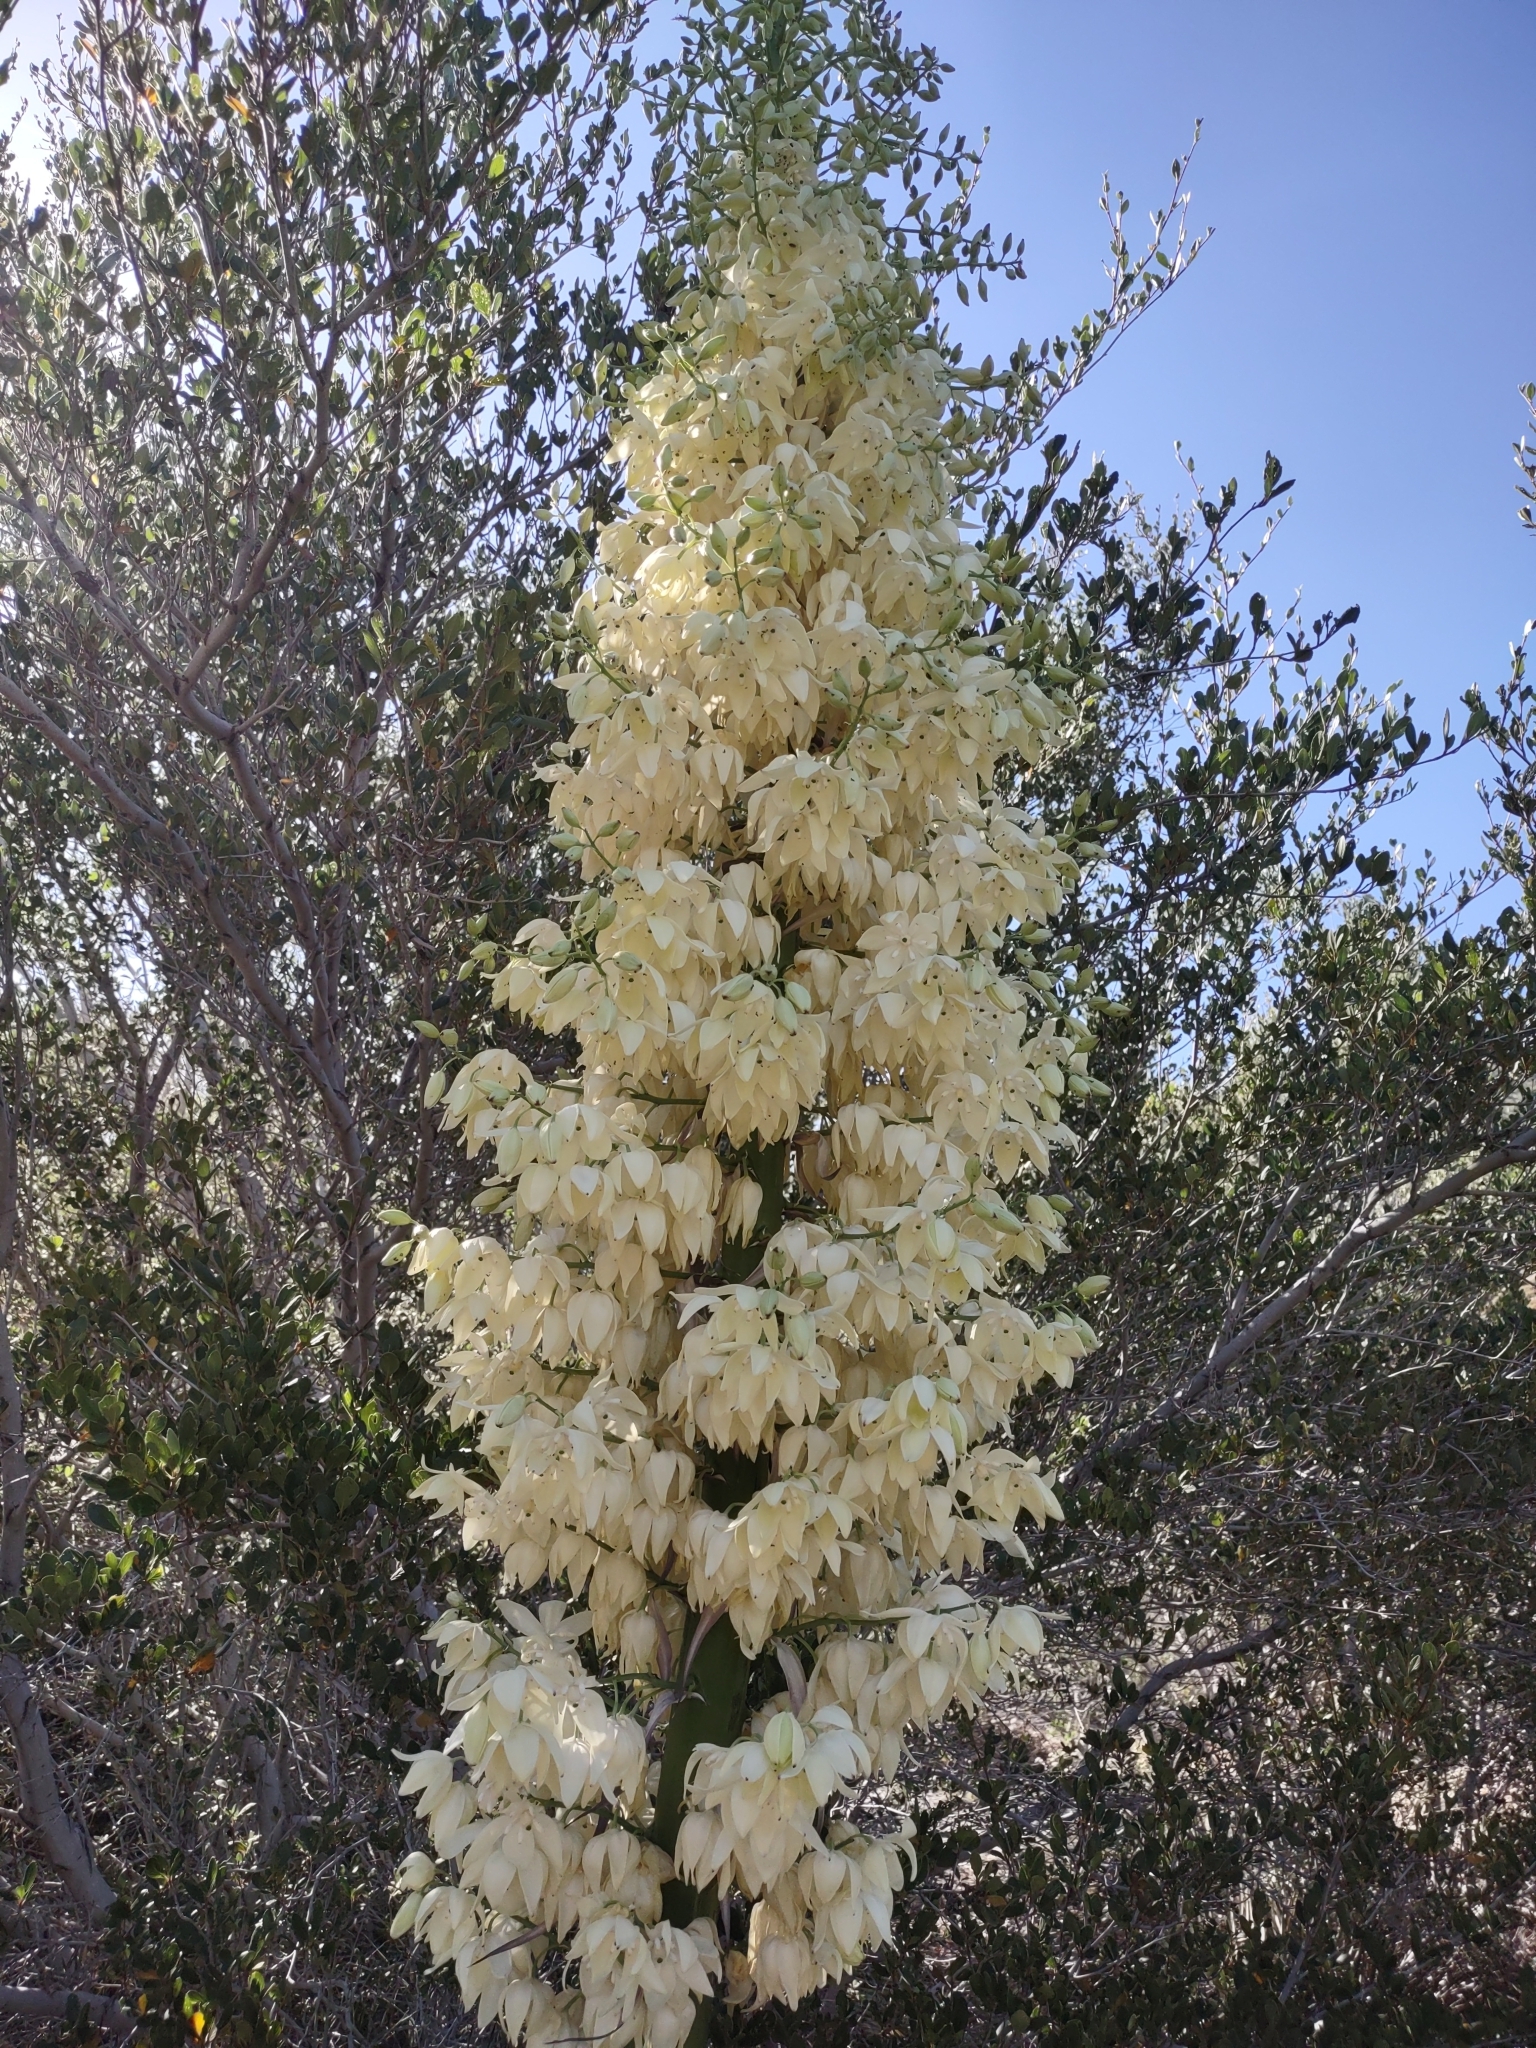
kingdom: Plantae
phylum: Tracheophyta
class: Liliopsida
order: Asparagales
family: Asparagaceae
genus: Hesperoyucca
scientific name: Hesperoyucca whipplei
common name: Our lord's-candle
